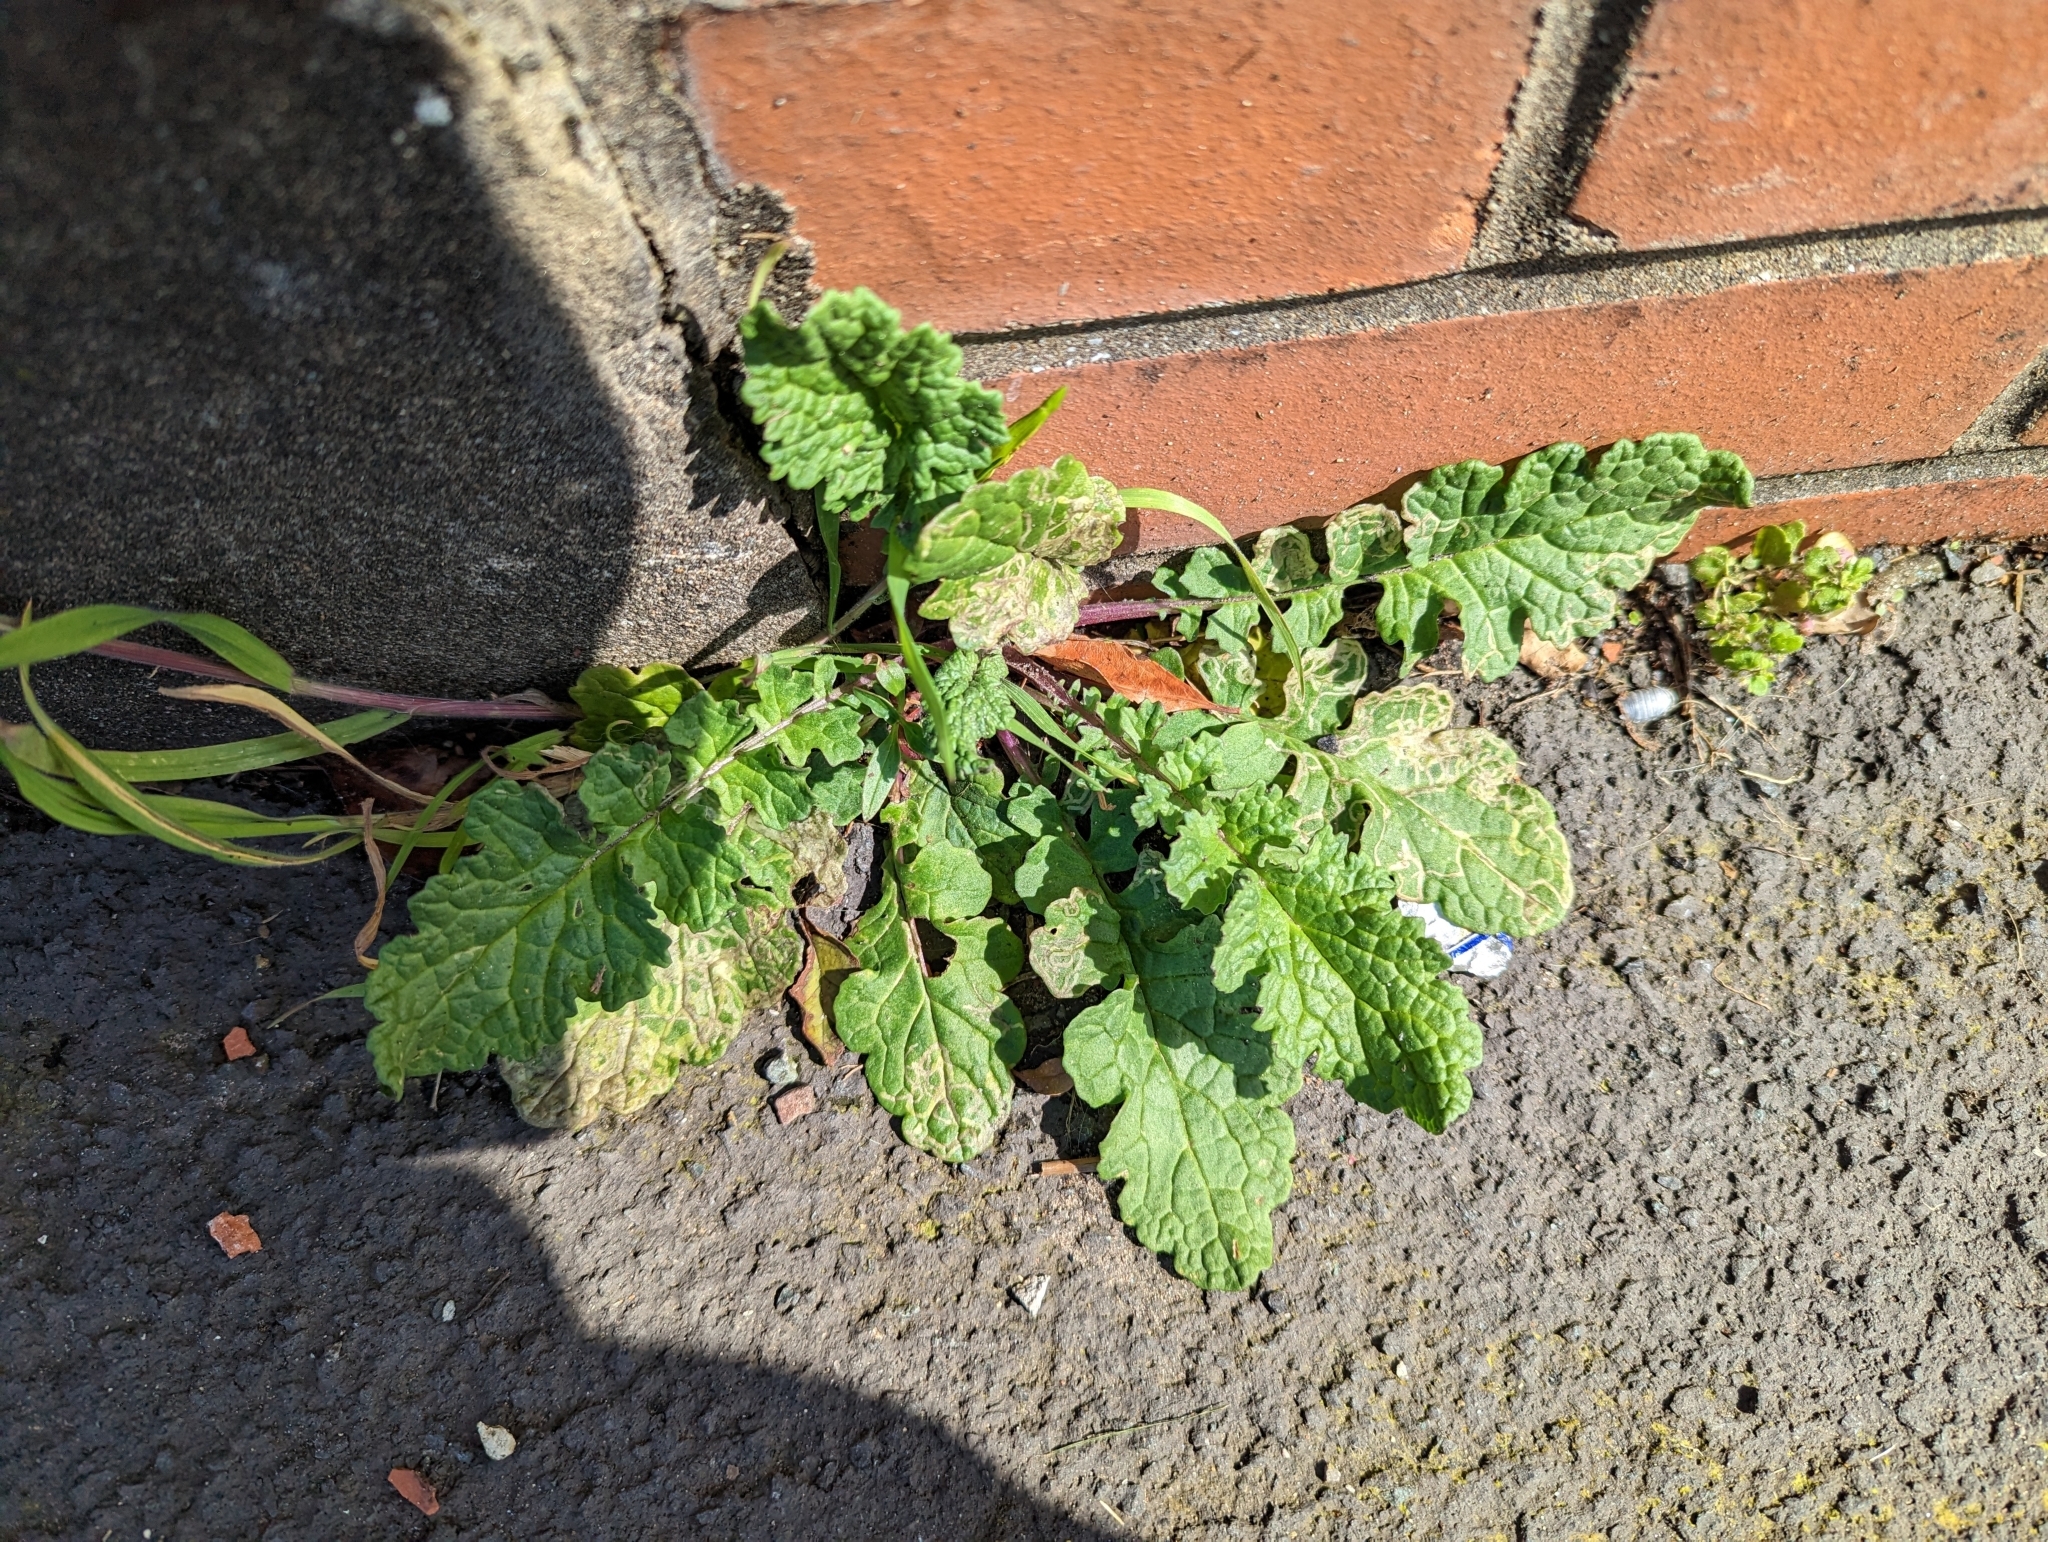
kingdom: Plantae
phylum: Tracheophyta
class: Magnoliopsida
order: Asterales
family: Asteraceae
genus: Jacobaea
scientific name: Jacobaea vulgaris
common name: Stinking willie
